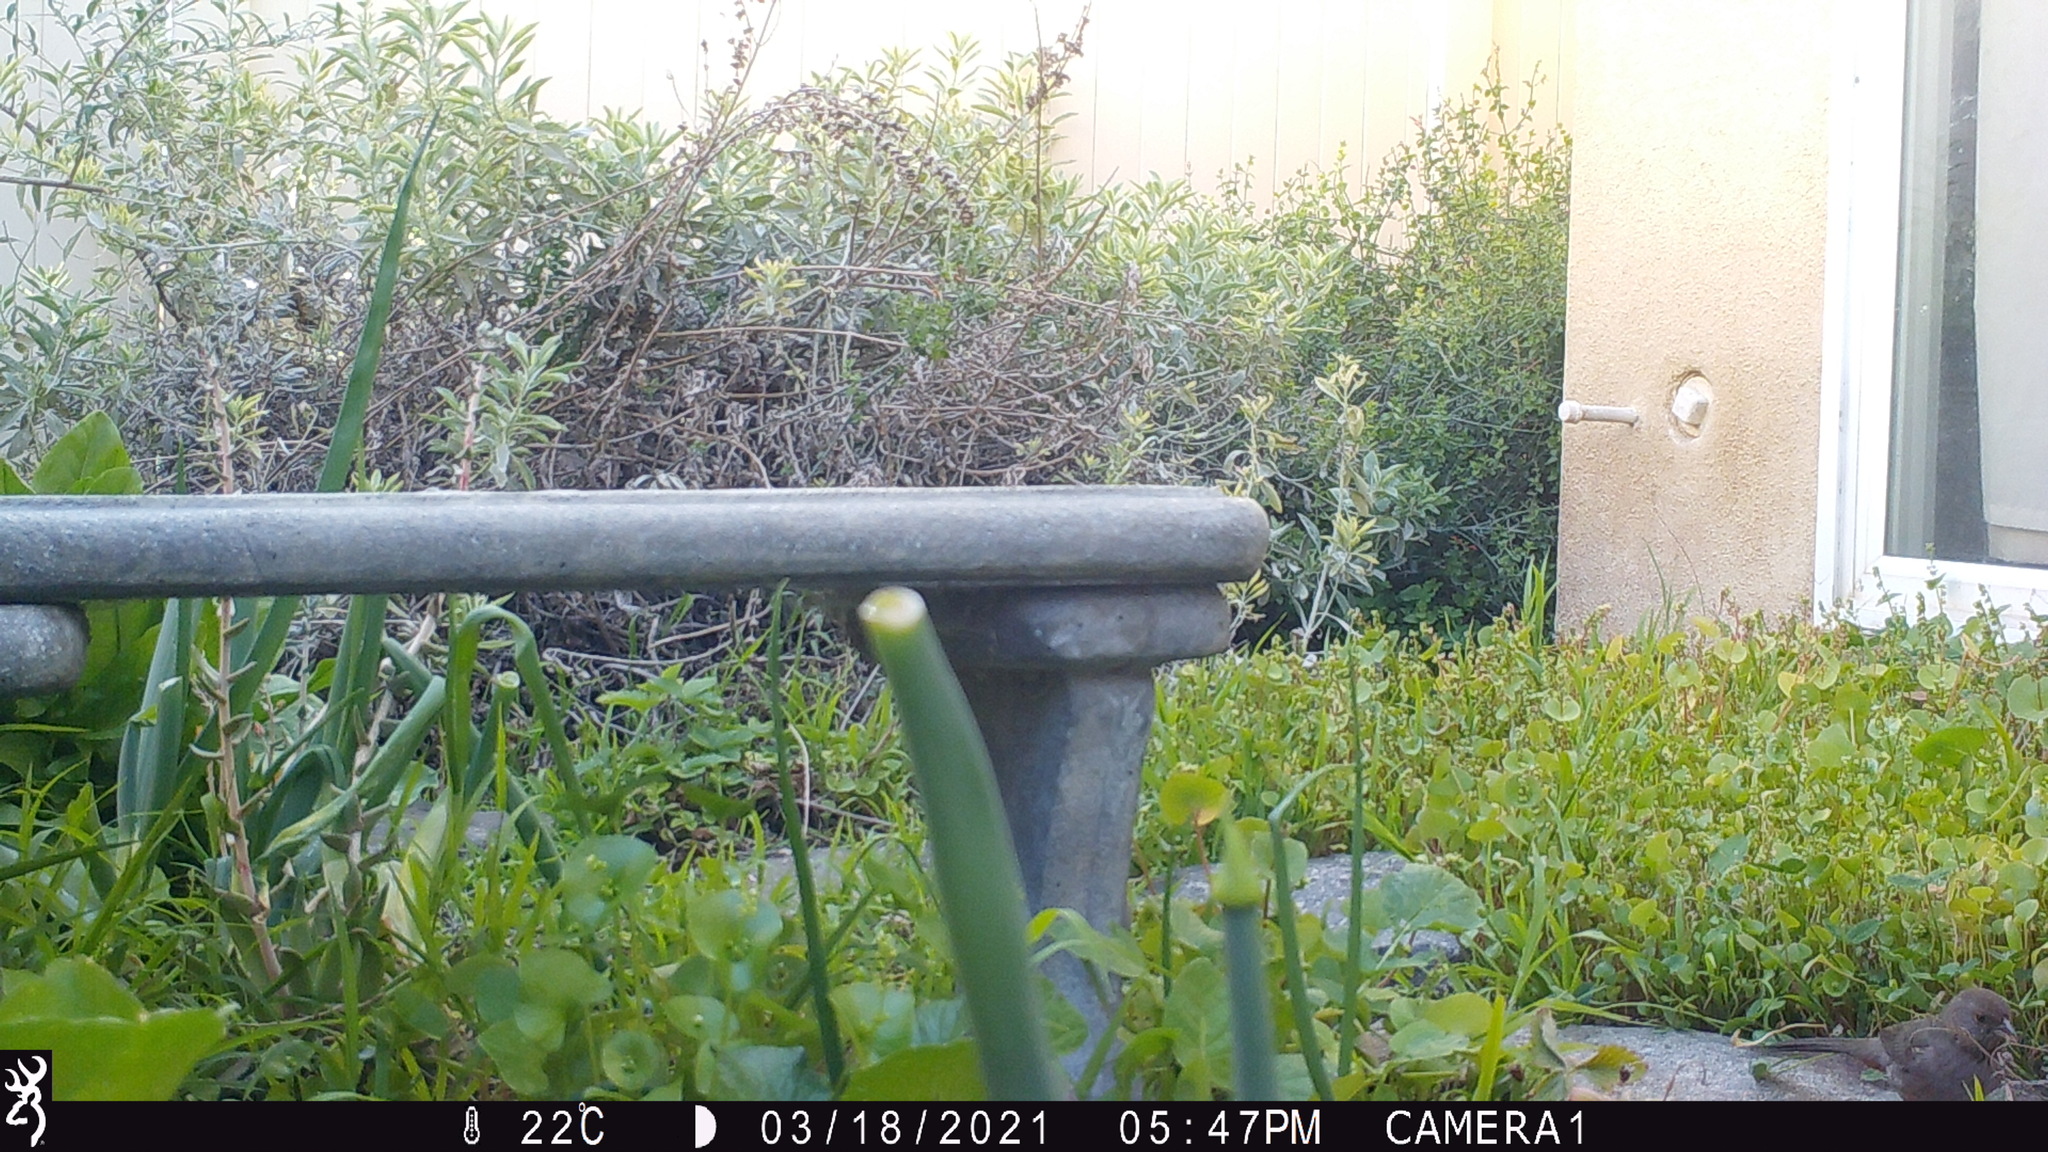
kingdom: Animalia
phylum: Chordata
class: Aves
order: Passeriformes
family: Passerellidae
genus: Melozone
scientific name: Melozone crissalis
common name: California towhee
